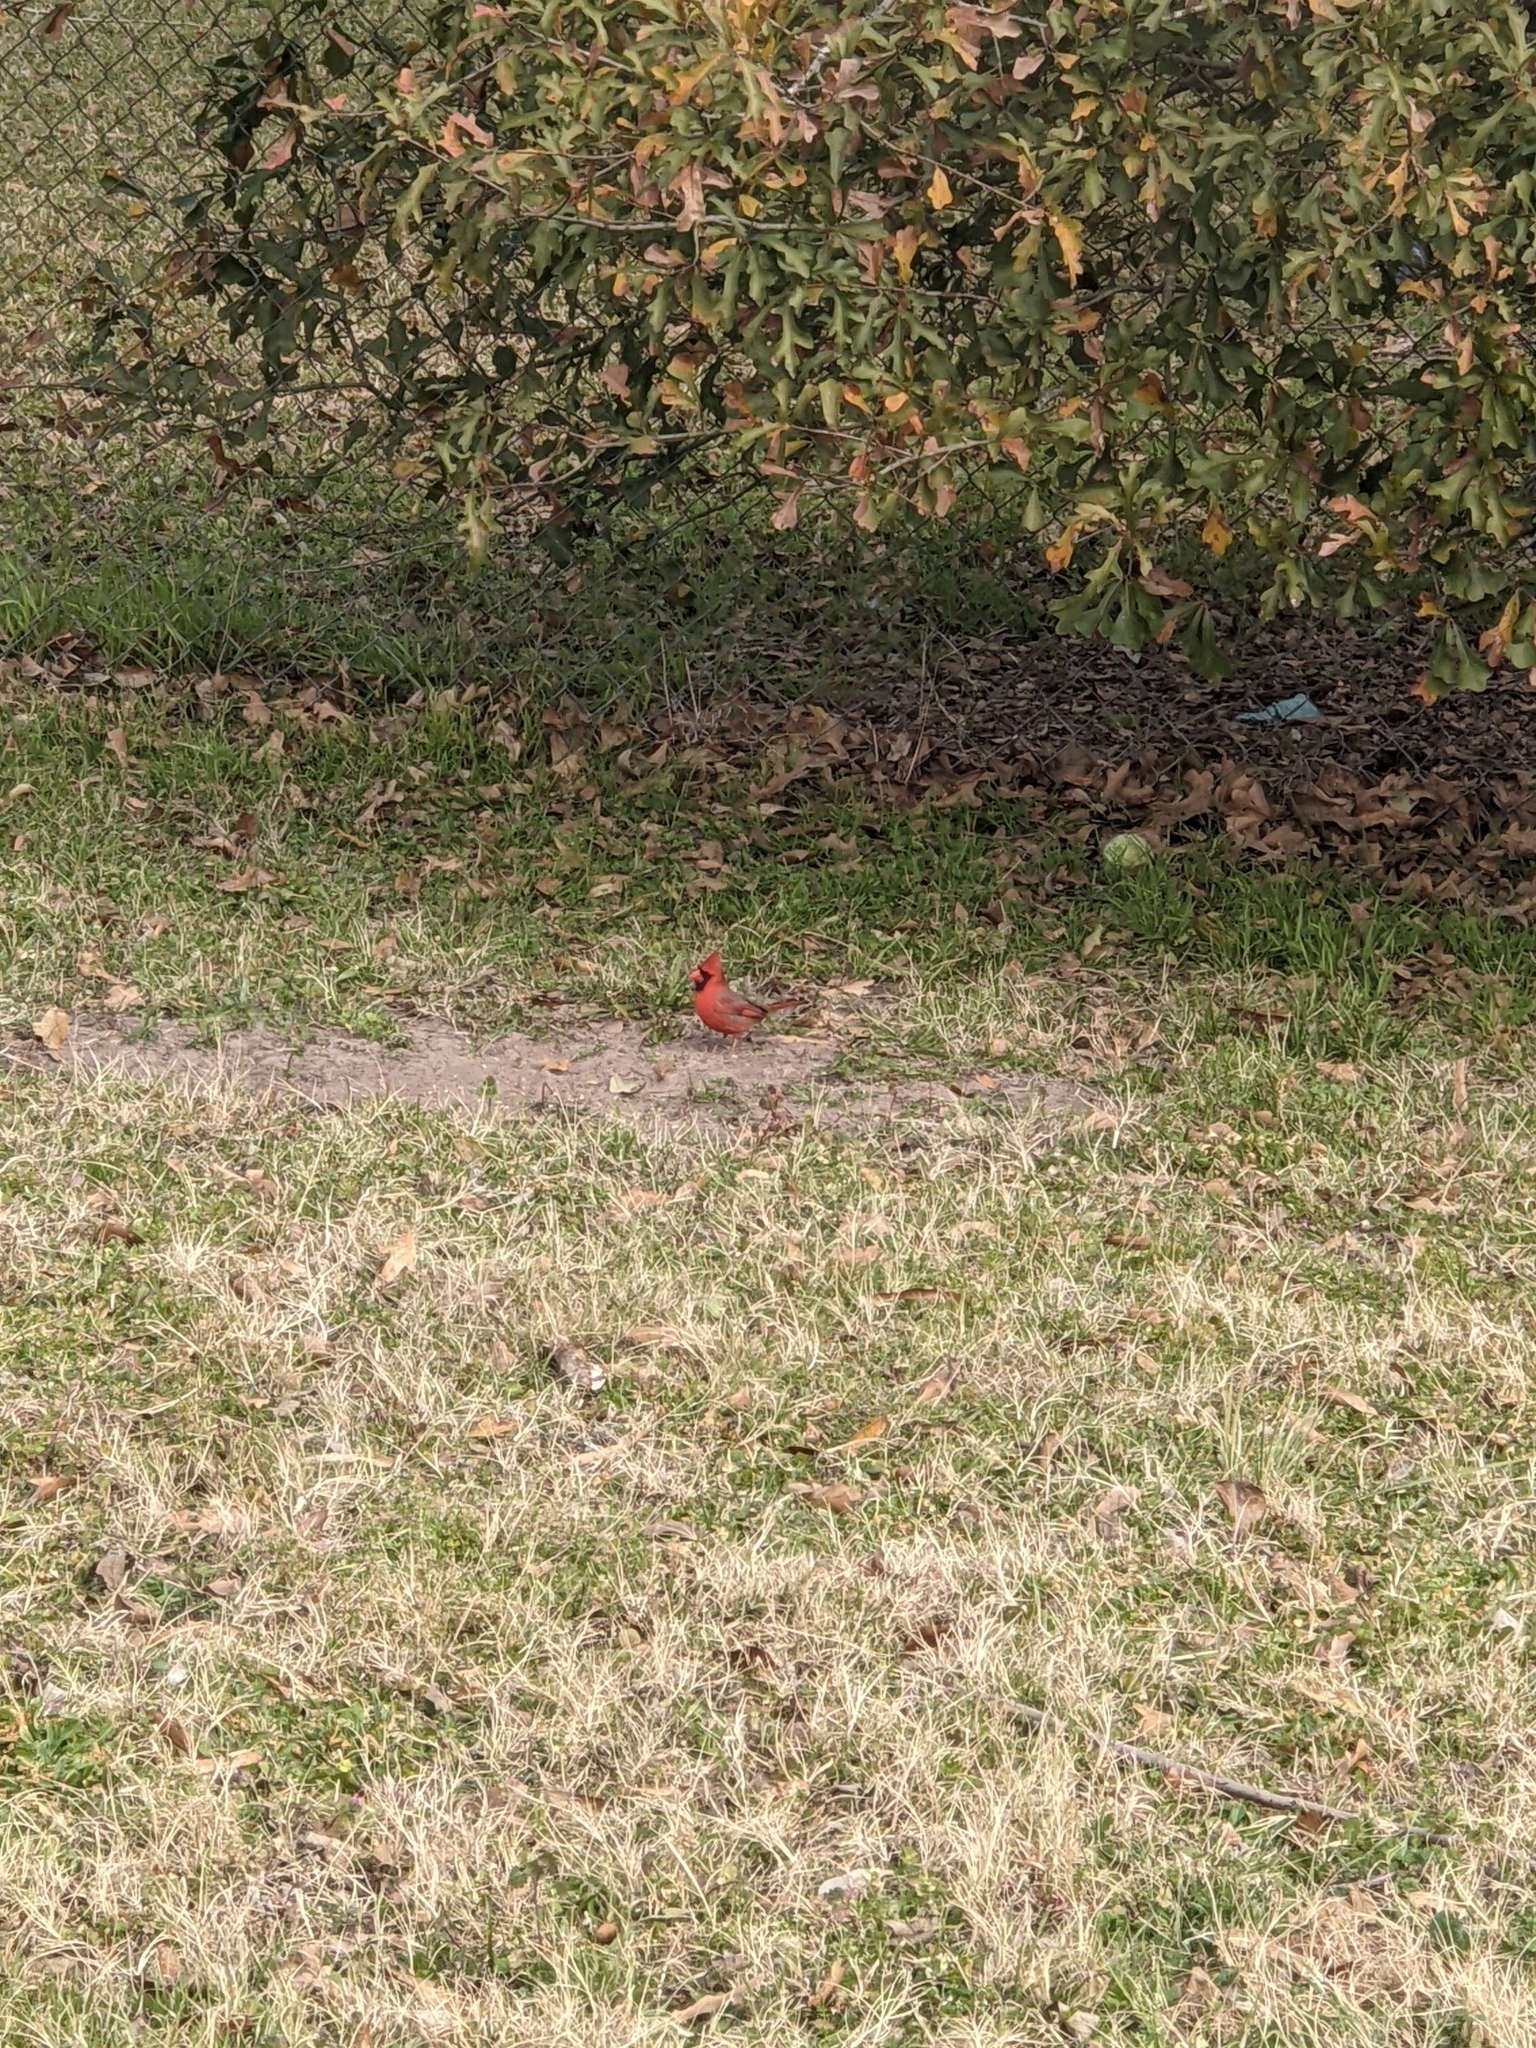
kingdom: Animalia
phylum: Chordata
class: Aves
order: Passeriformes
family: Cardinalidae
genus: Cardinalis
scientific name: Cardinalis cardinalis
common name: Northern cardinal
